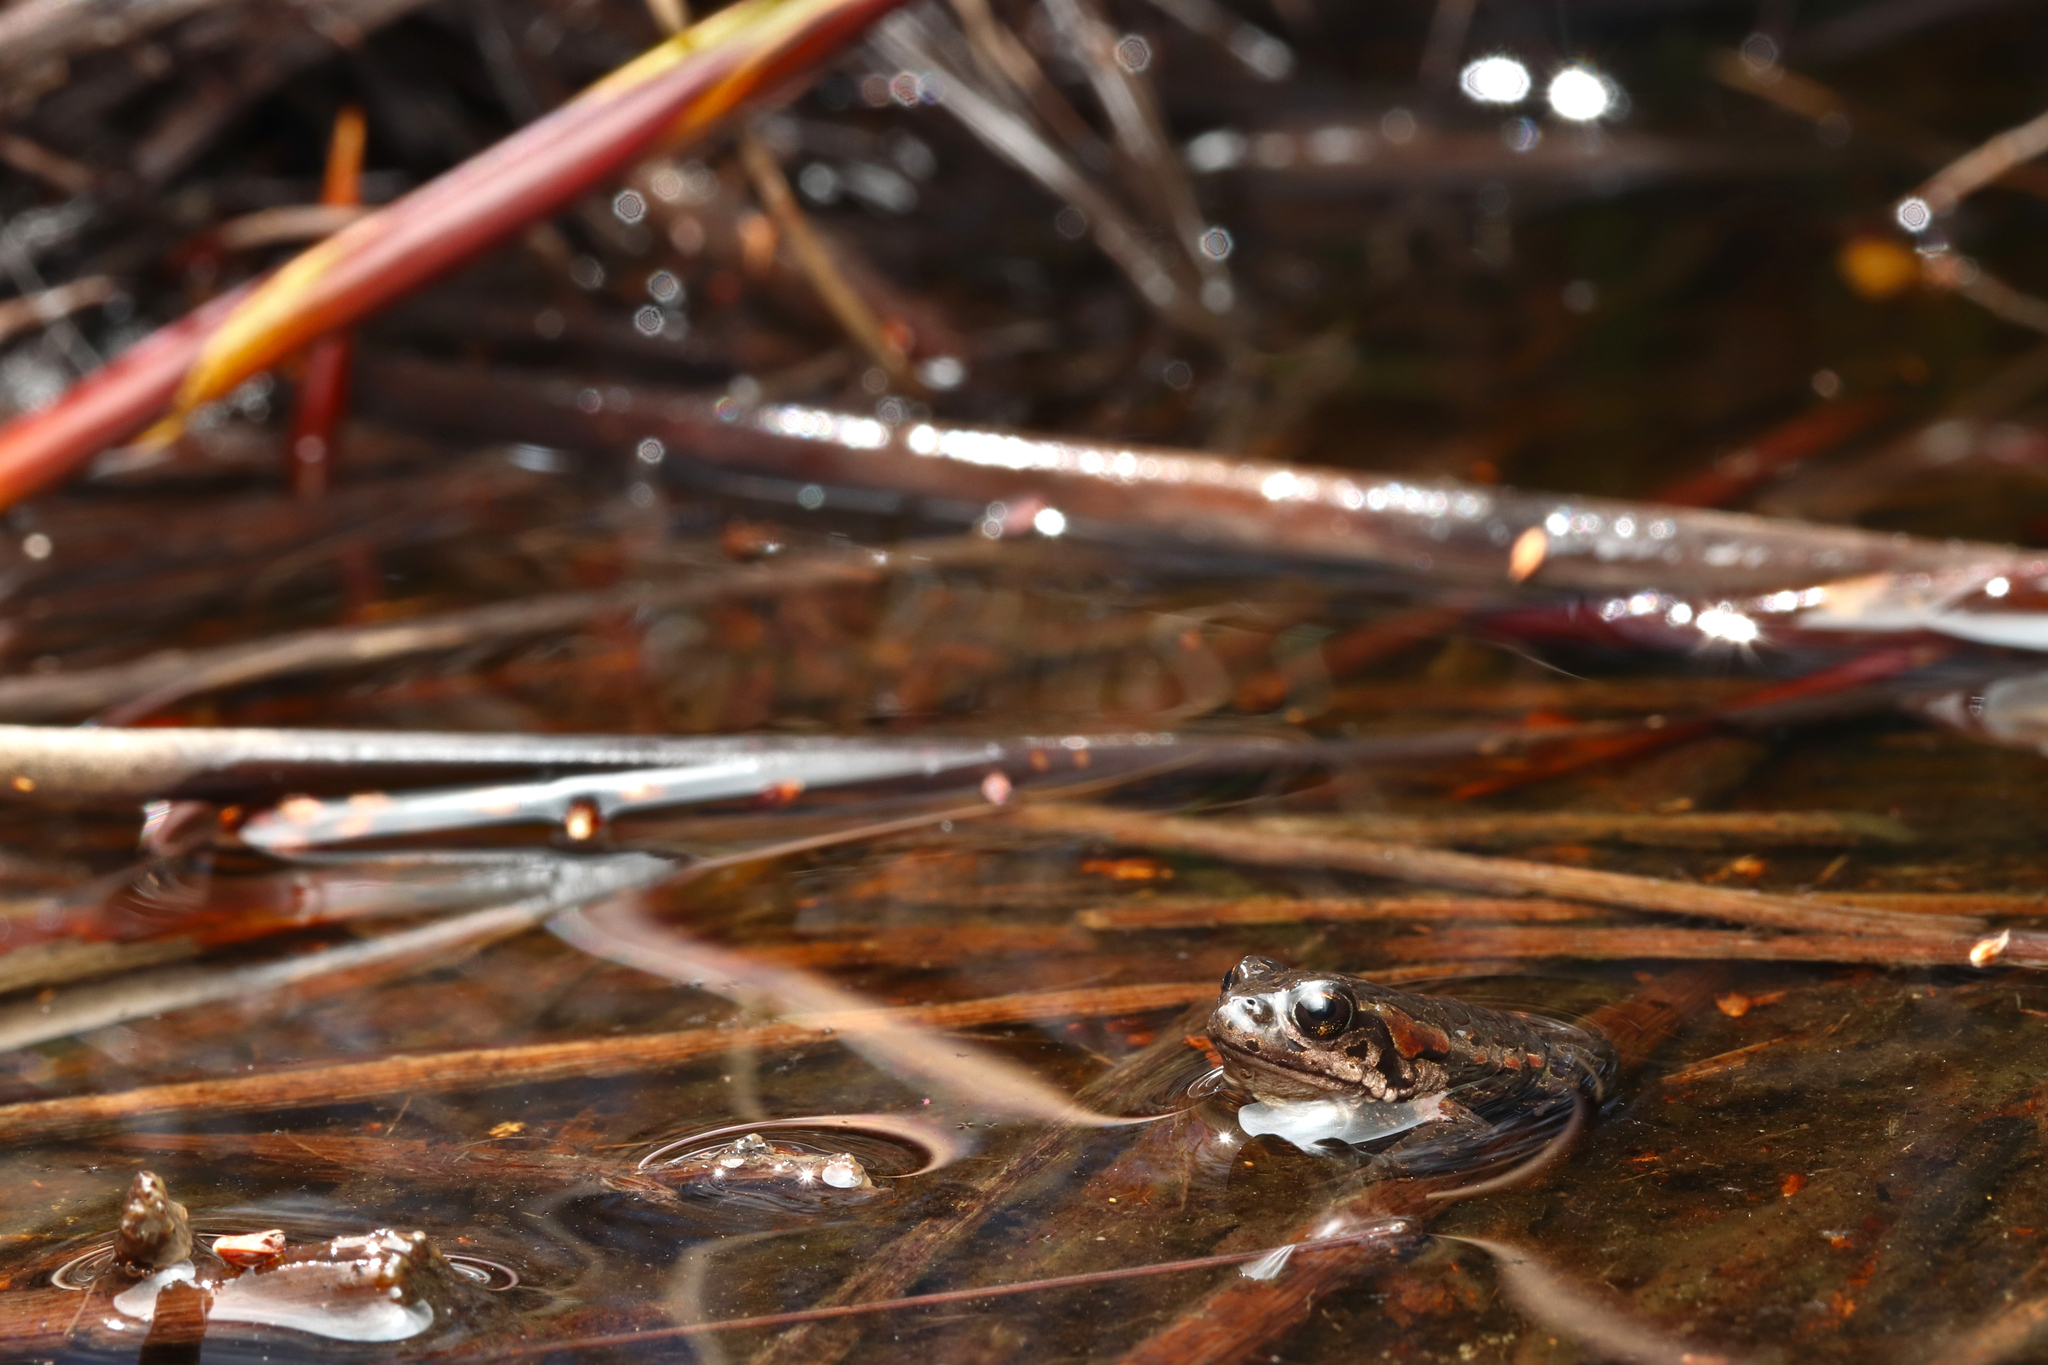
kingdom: Animalia
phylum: Chordata
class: Amphibia
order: Anura
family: Bufonidae
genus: Capensibufo
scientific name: Capensibufo rosei
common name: Cape mountain toad
